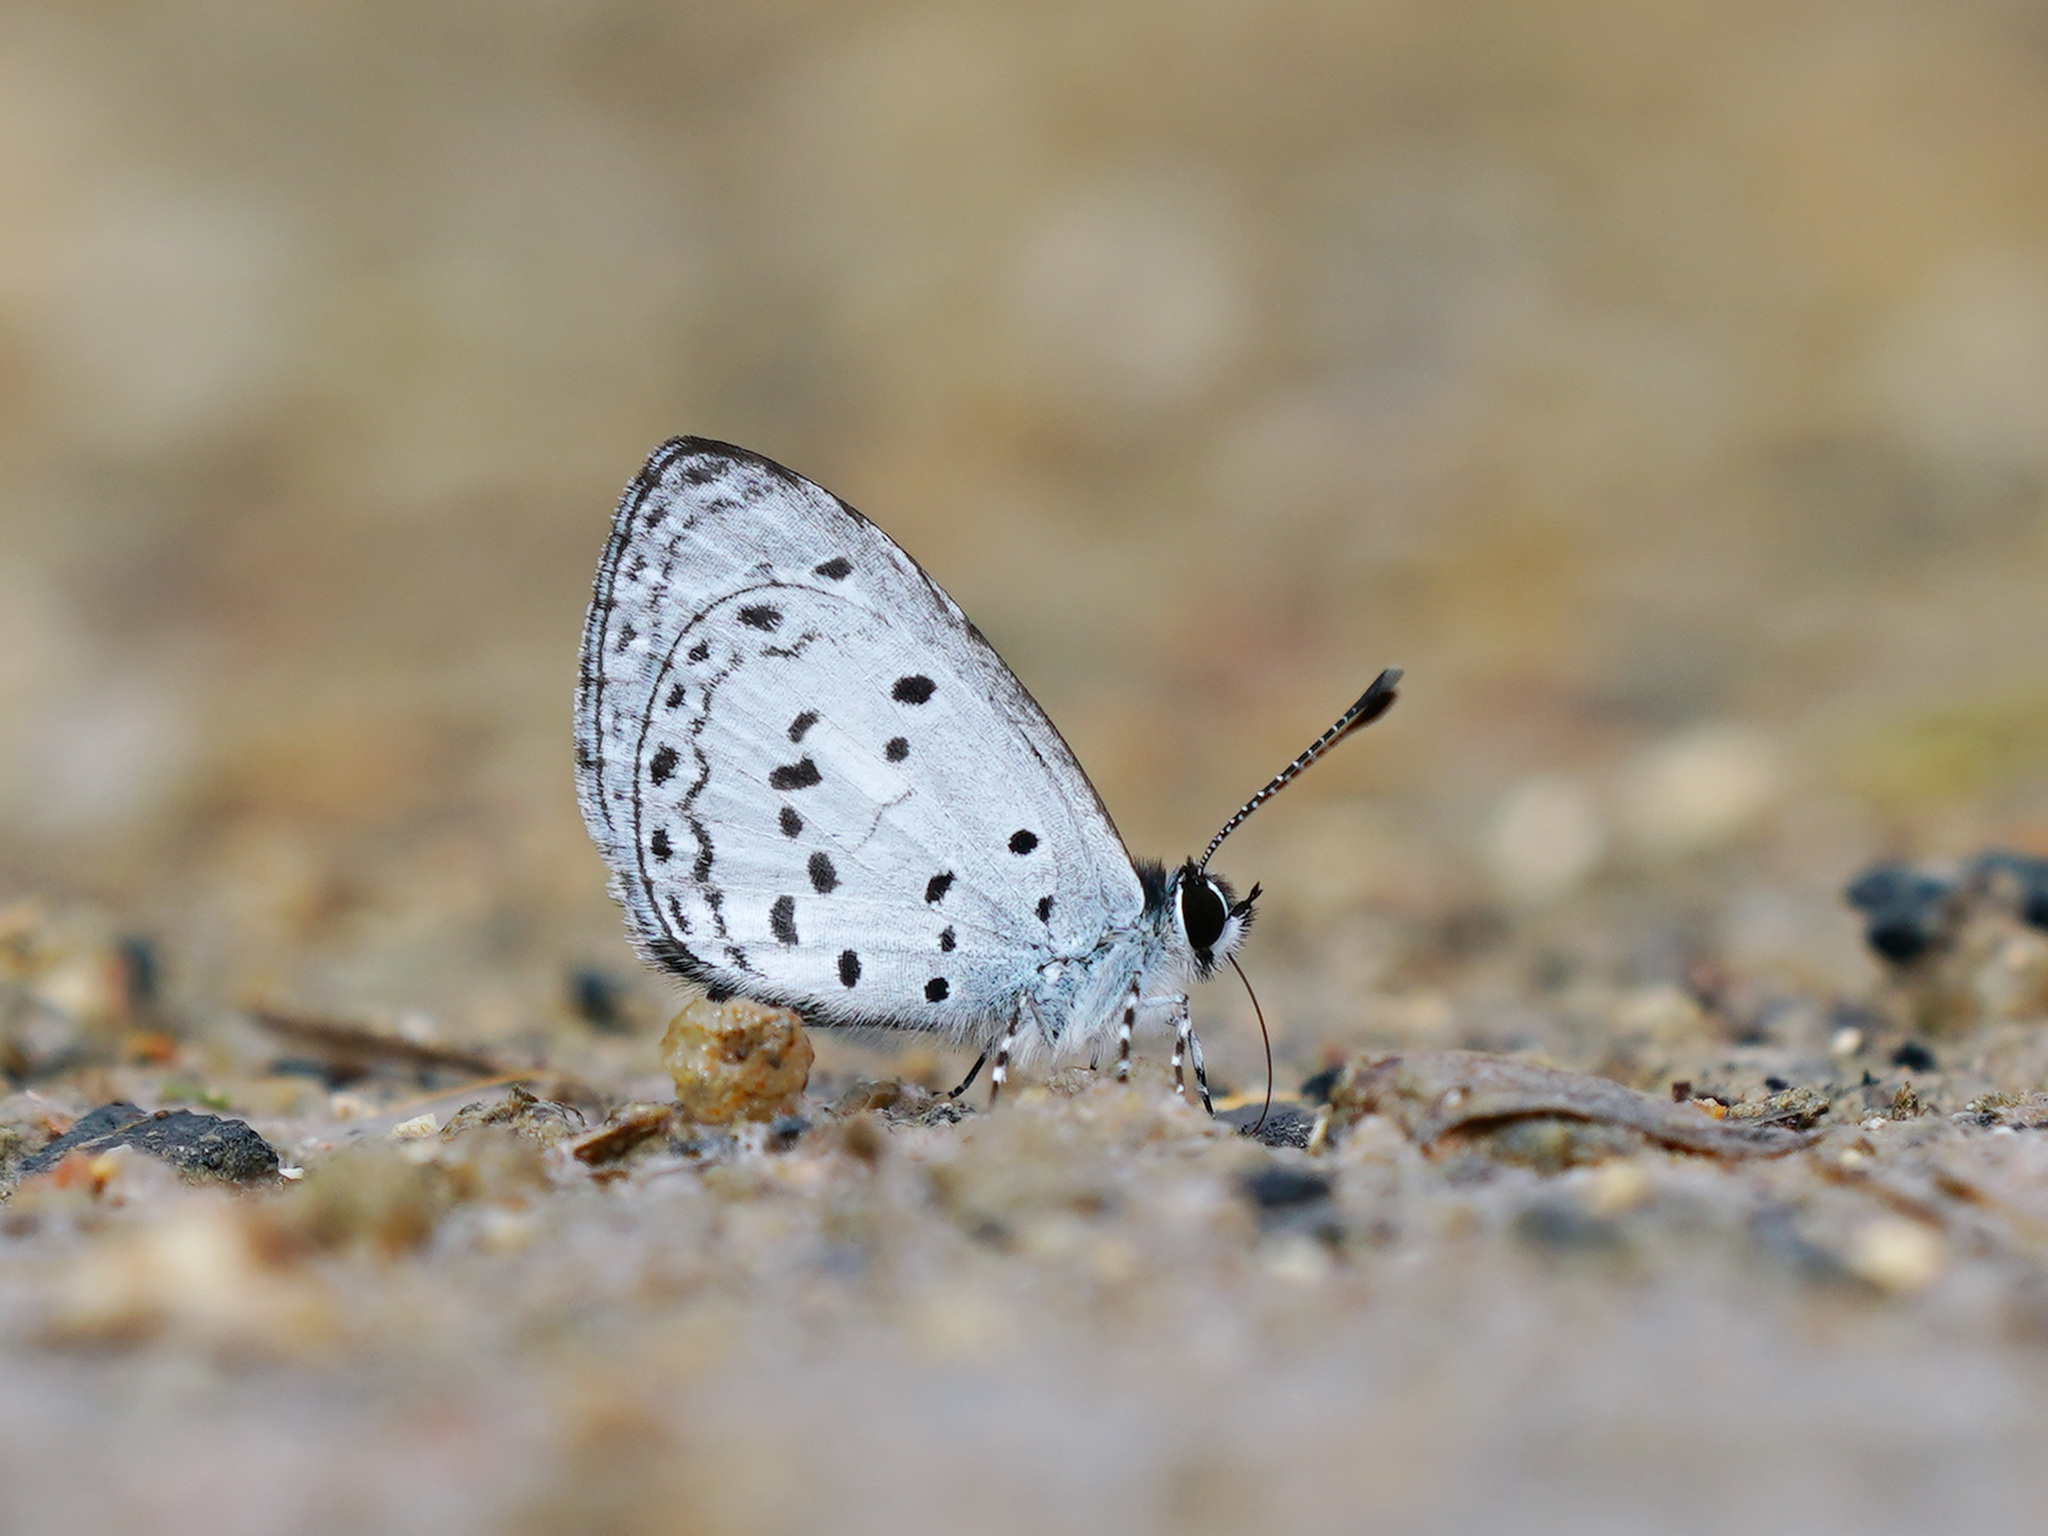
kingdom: Animalia
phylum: Arthropoda
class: Insecta
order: Lepidoptera
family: Lycaenidae
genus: Oreolyce
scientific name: Oreolyce
